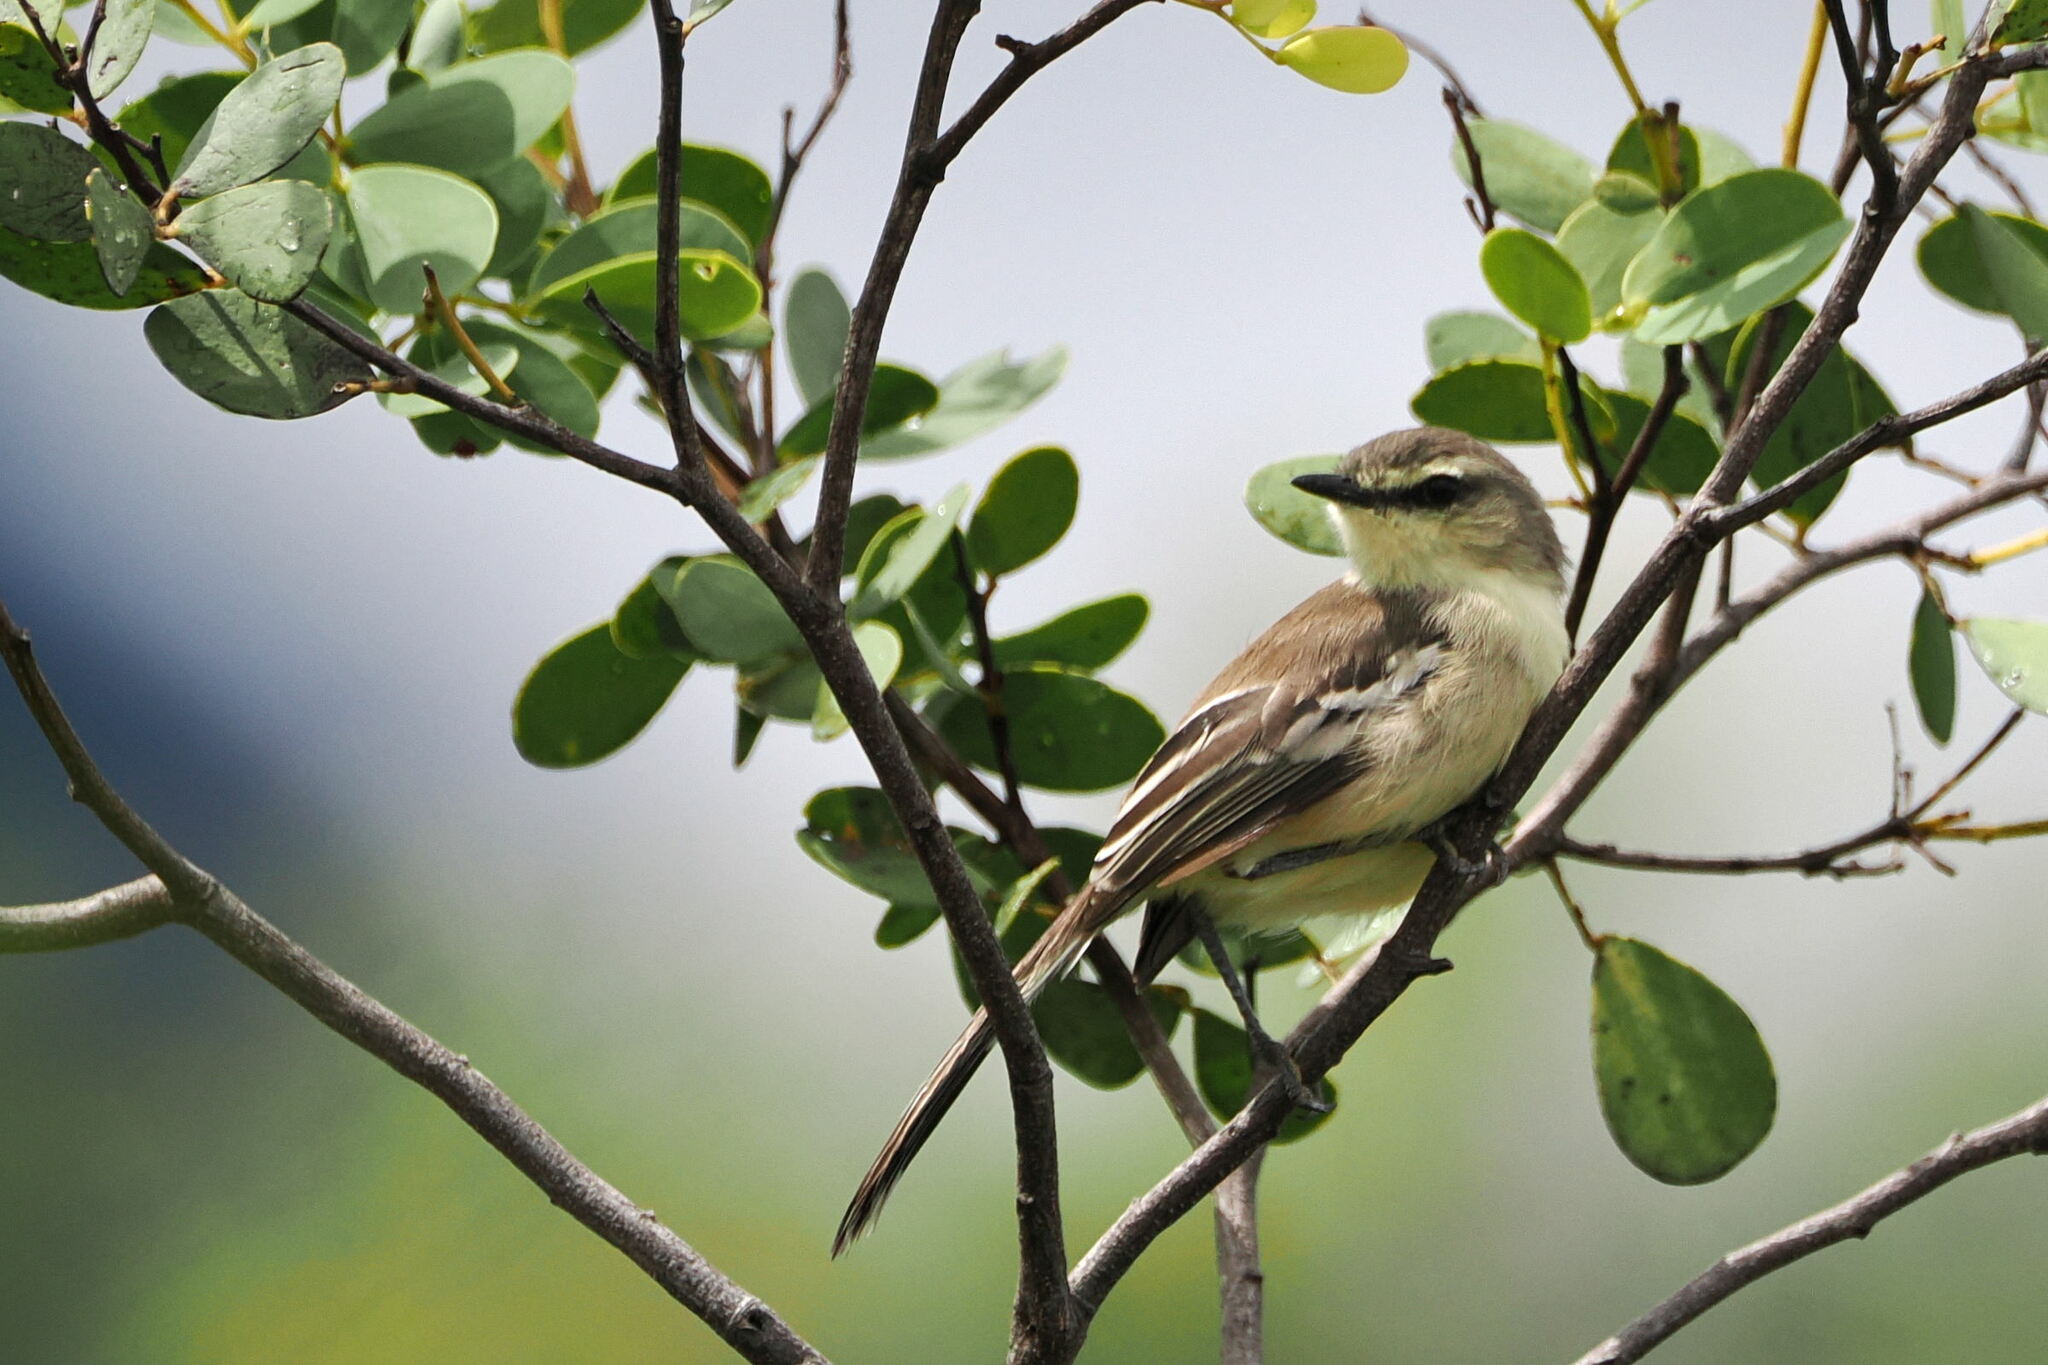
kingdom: Animalia
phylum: Chordata
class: Aves
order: Passeriformes
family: Tyrannidae
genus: Stigmatura
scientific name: Stigmatura bahiae
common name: Bahia wagtail-tyrant
